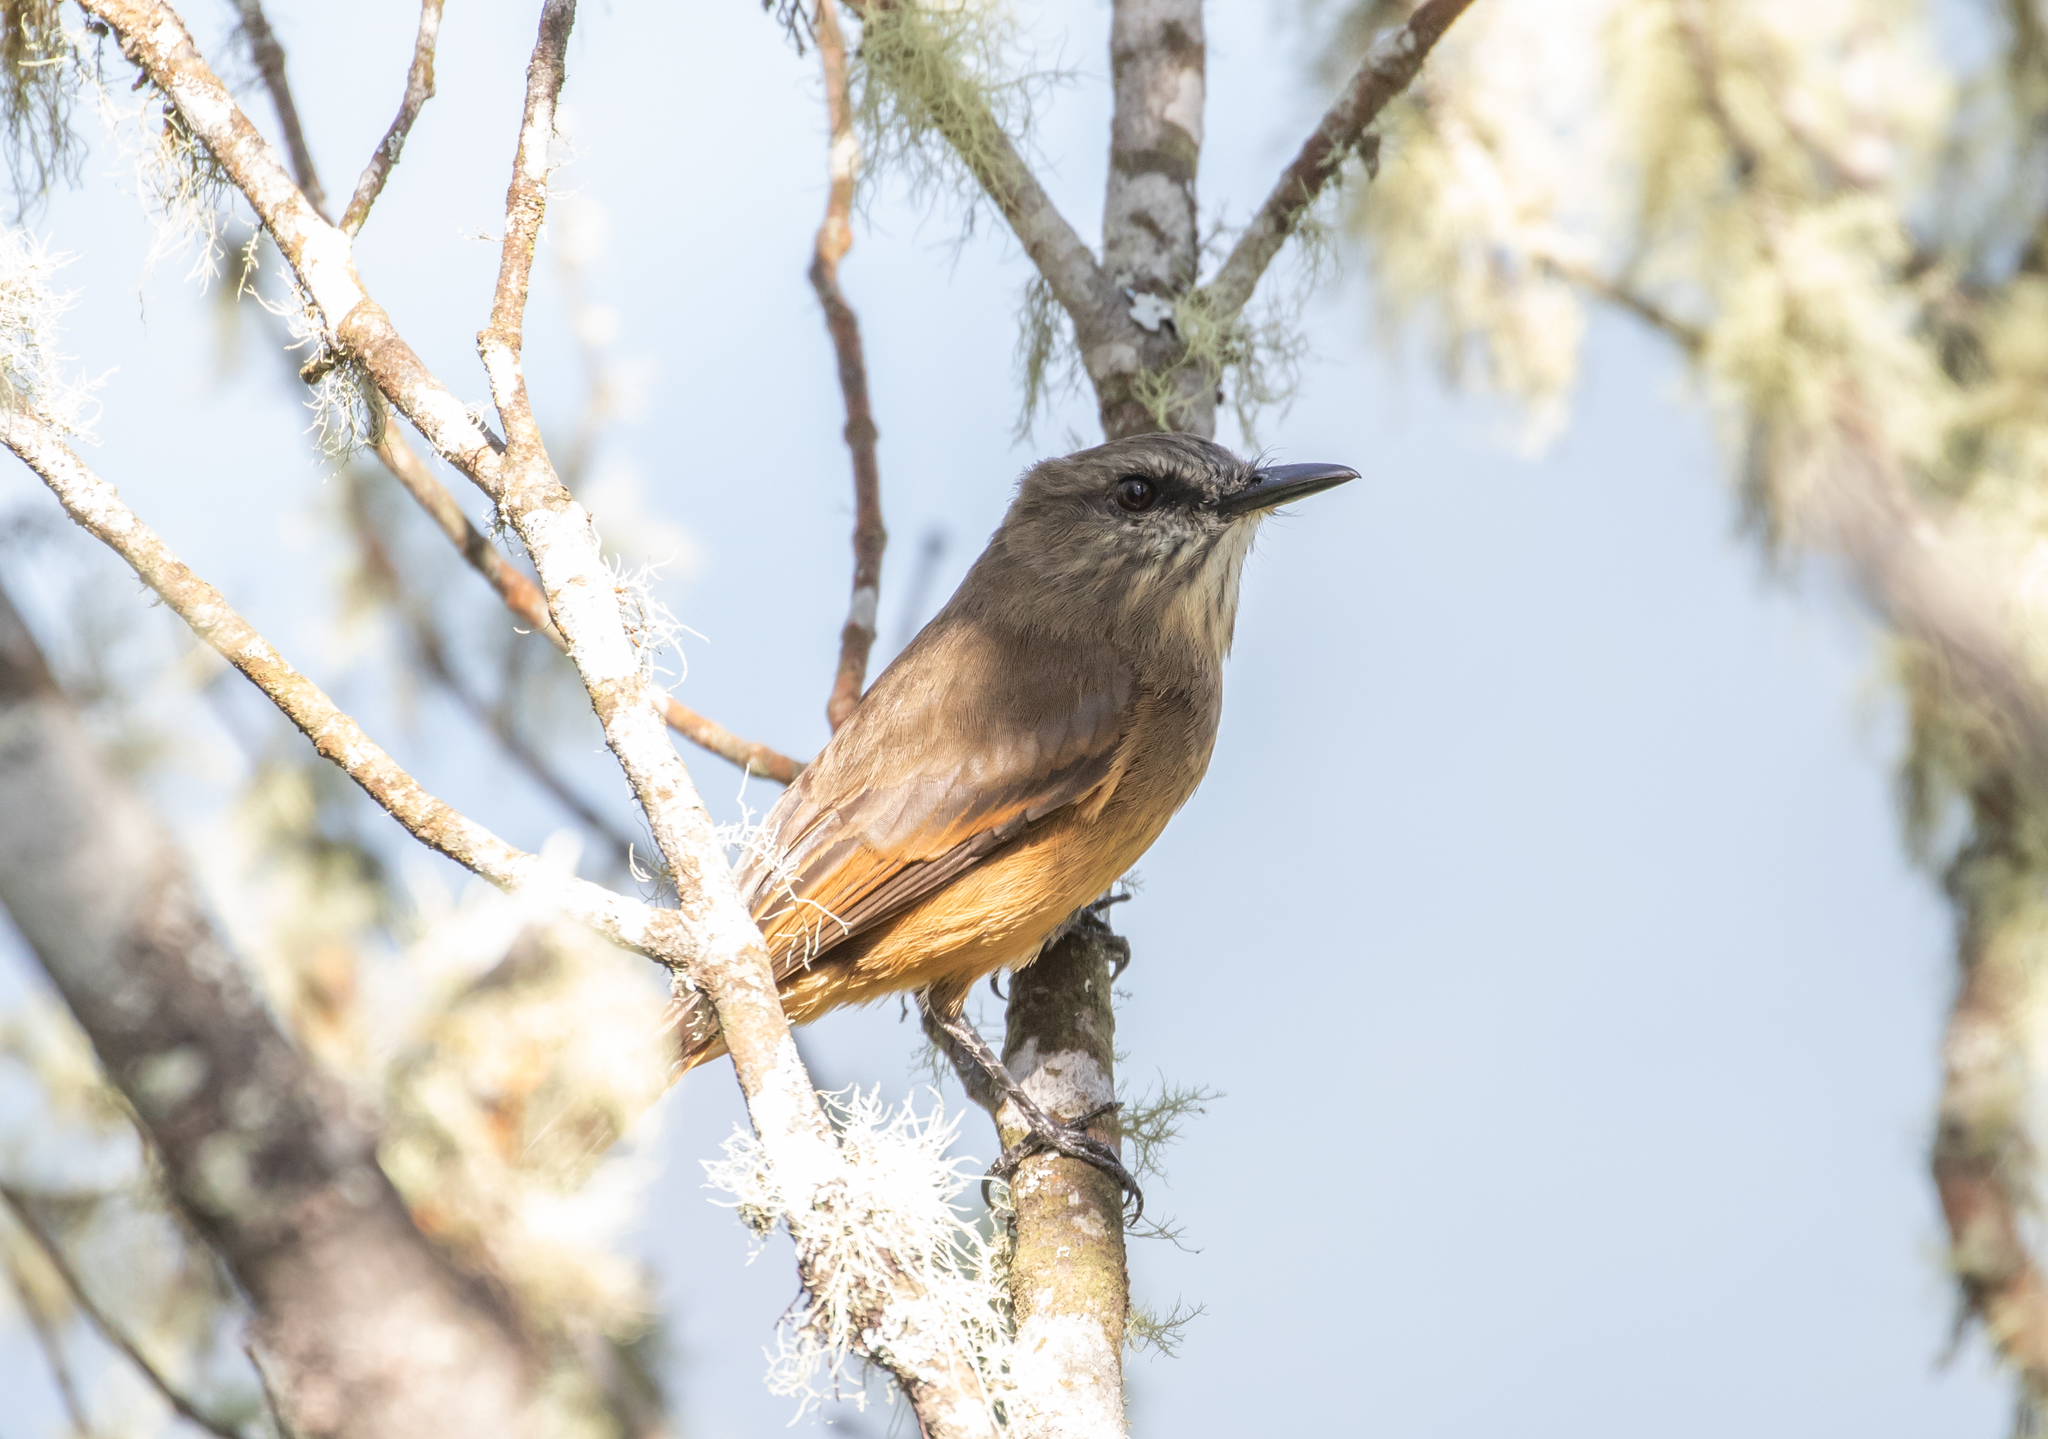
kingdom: Animalia
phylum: Chordata
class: Aves
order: Passeriformes
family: Tyrannidae
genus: Myiotheretes
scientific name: Myiotheretes pernix
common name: Santa marta bush tyrant
